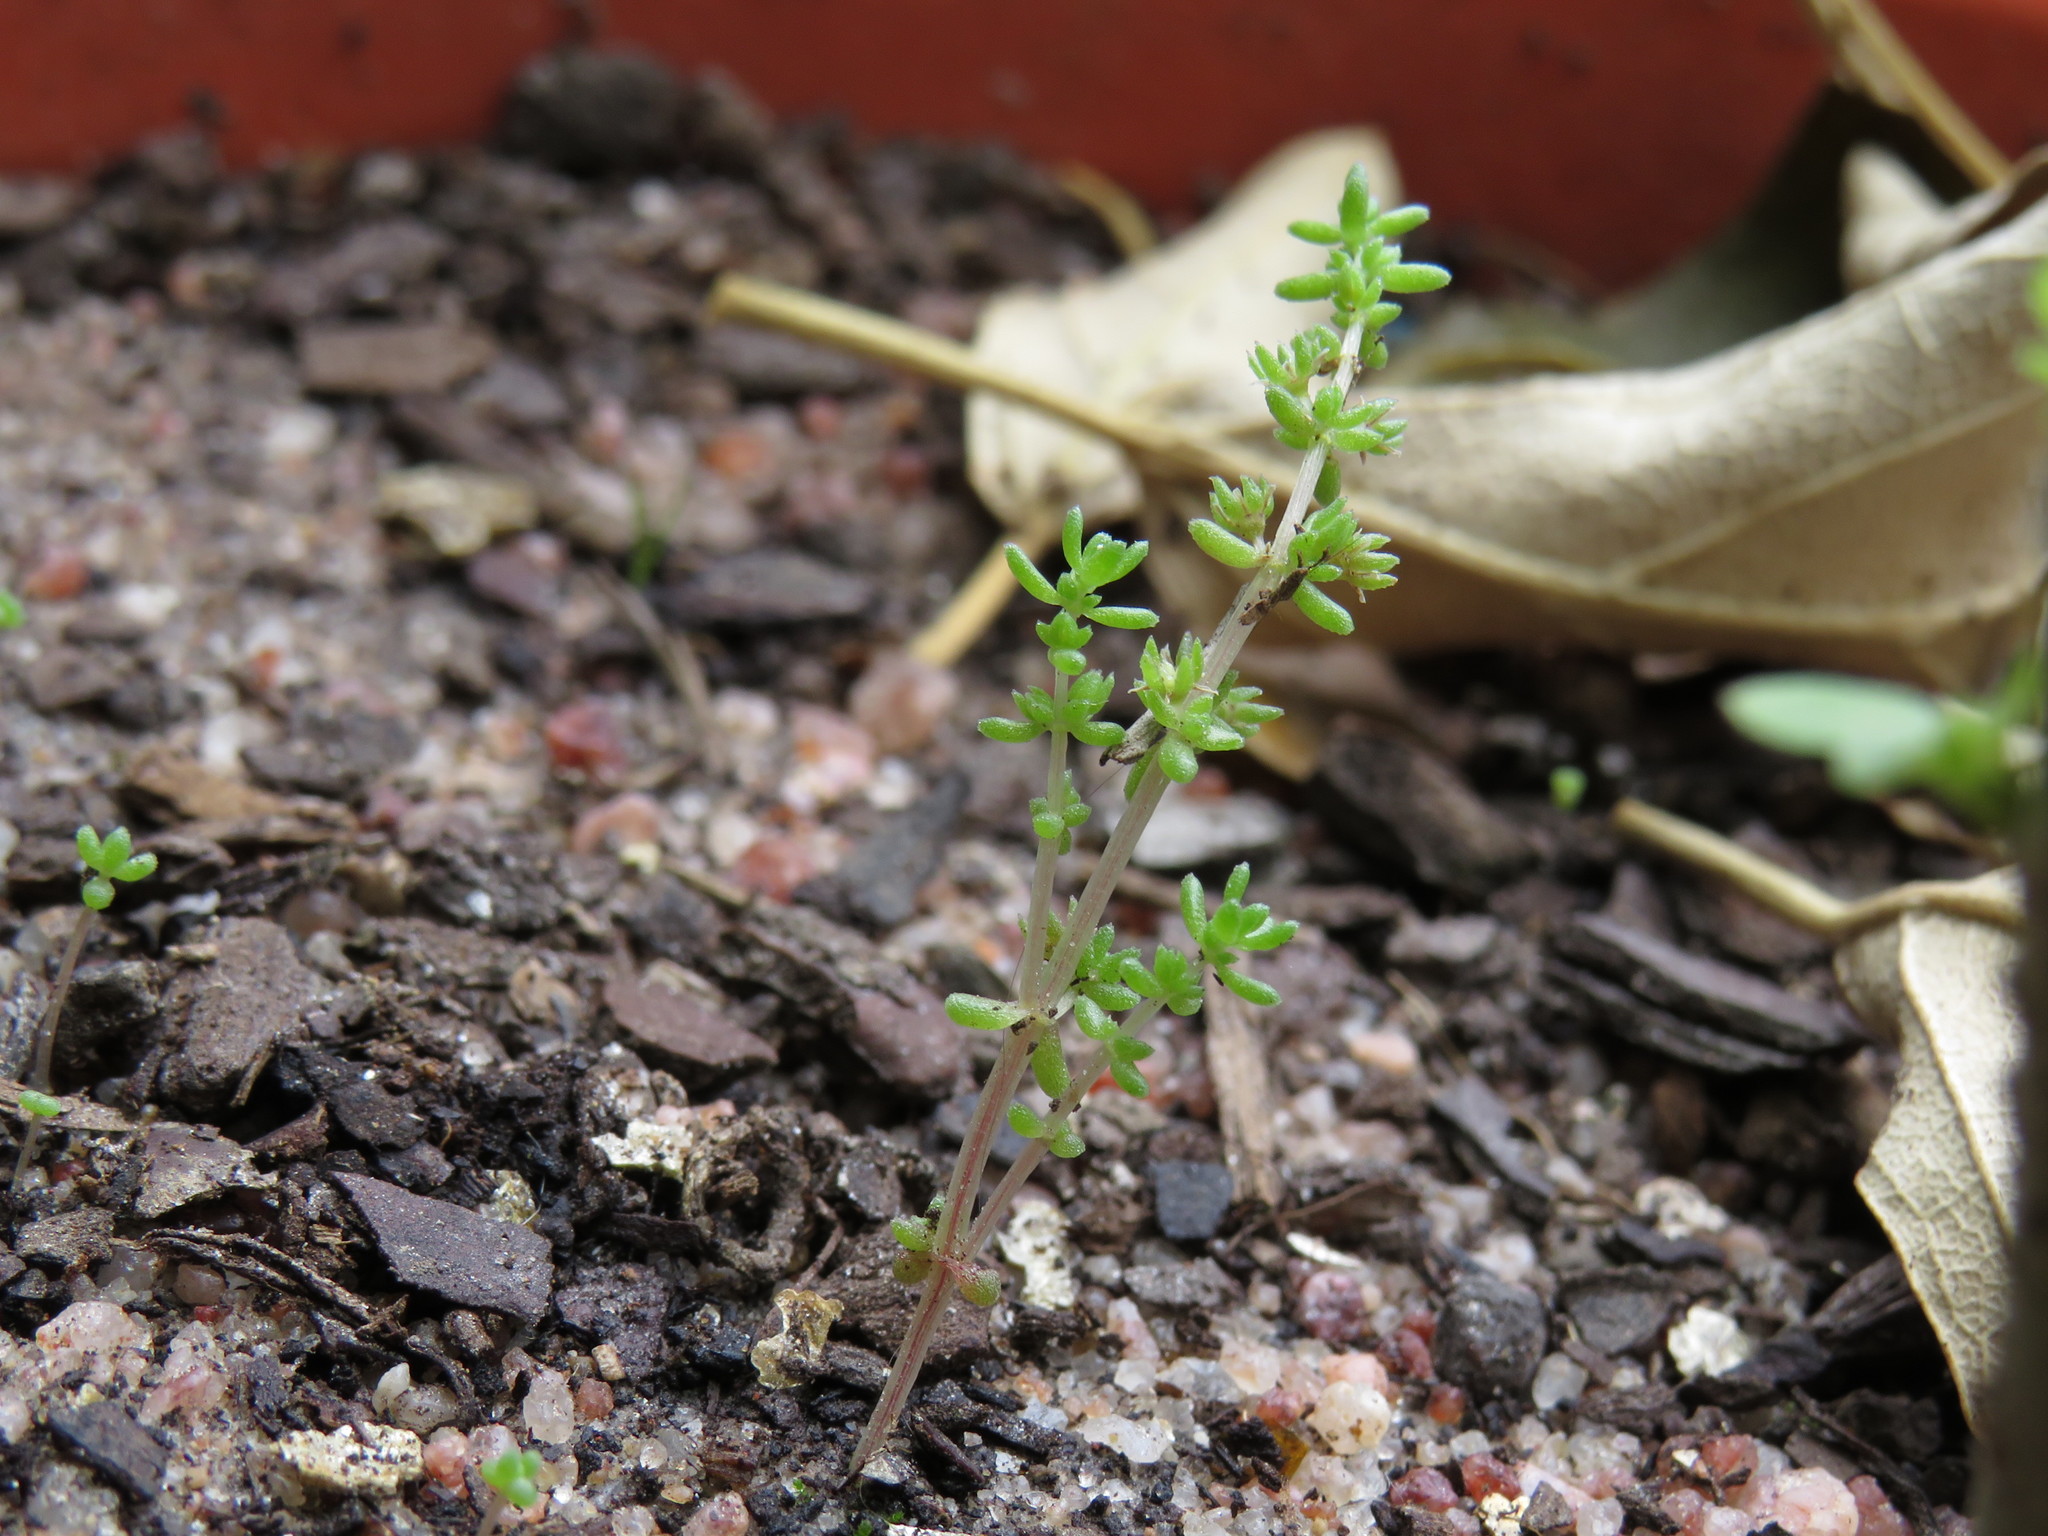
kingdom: Plantae
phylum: Tracheophyta
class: Magnoliopsida
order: Saxifragales
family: Crassulaceae
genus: Crassula
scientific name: Crassula thunbergiana
